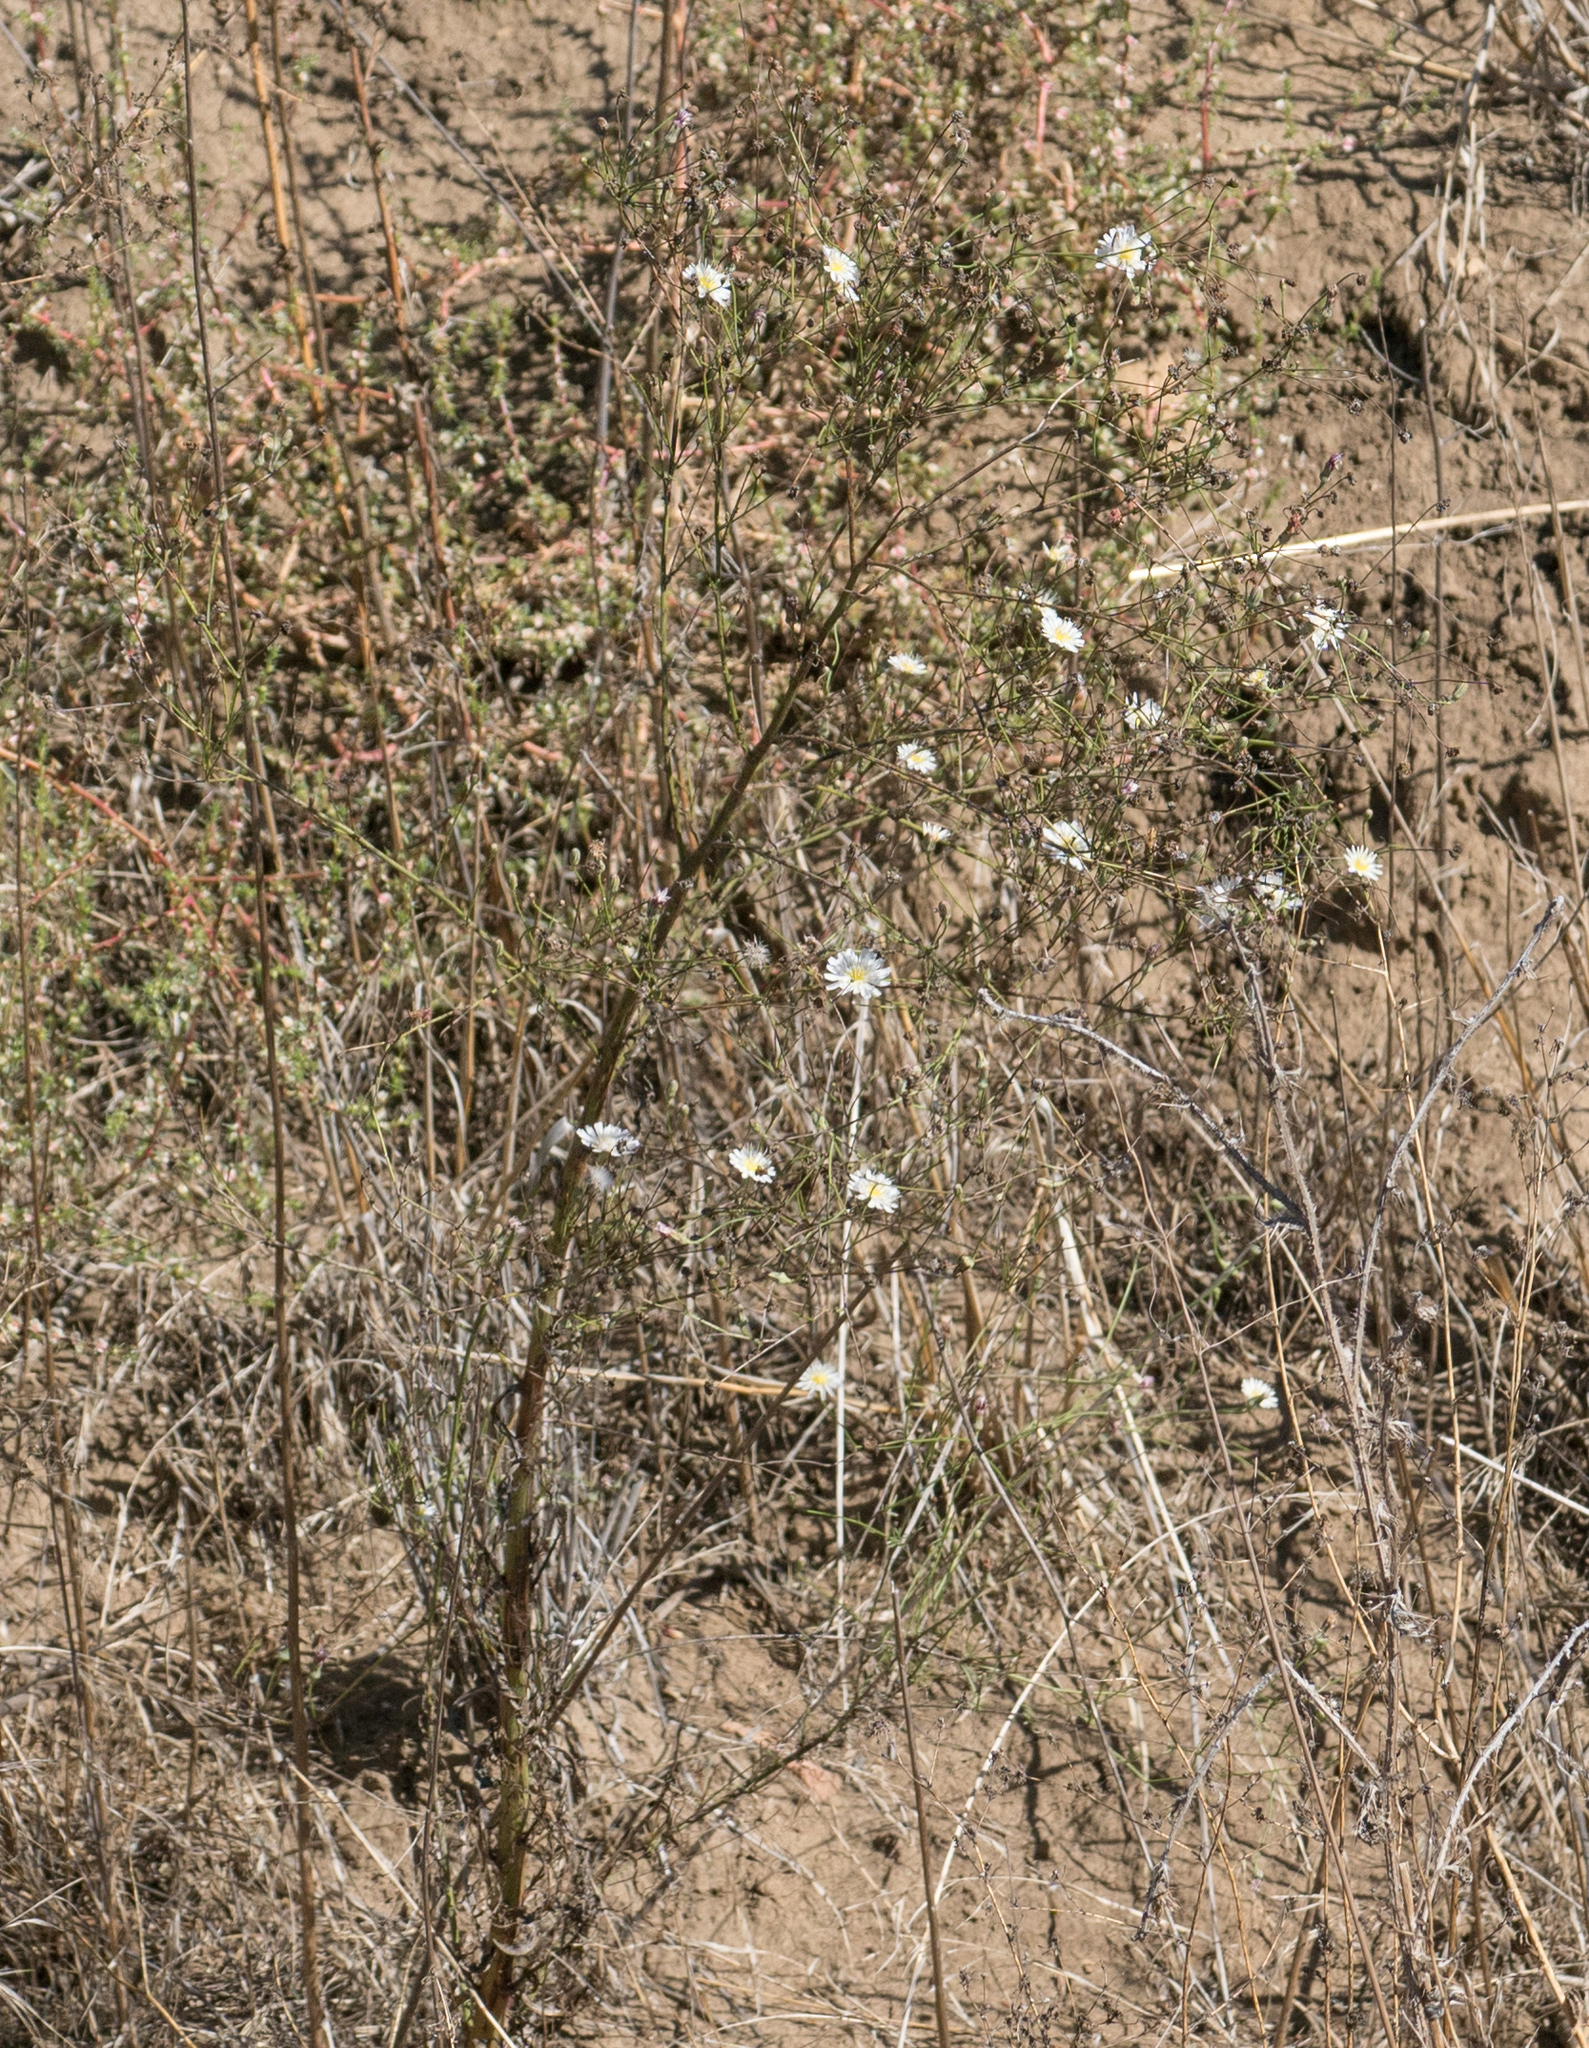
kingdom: Plantae
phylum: Tracheophyta
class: Magnoliopsida
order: Asterales
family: Asteraceae
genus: Malacothrix
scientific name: Malacothrix saxatilis
